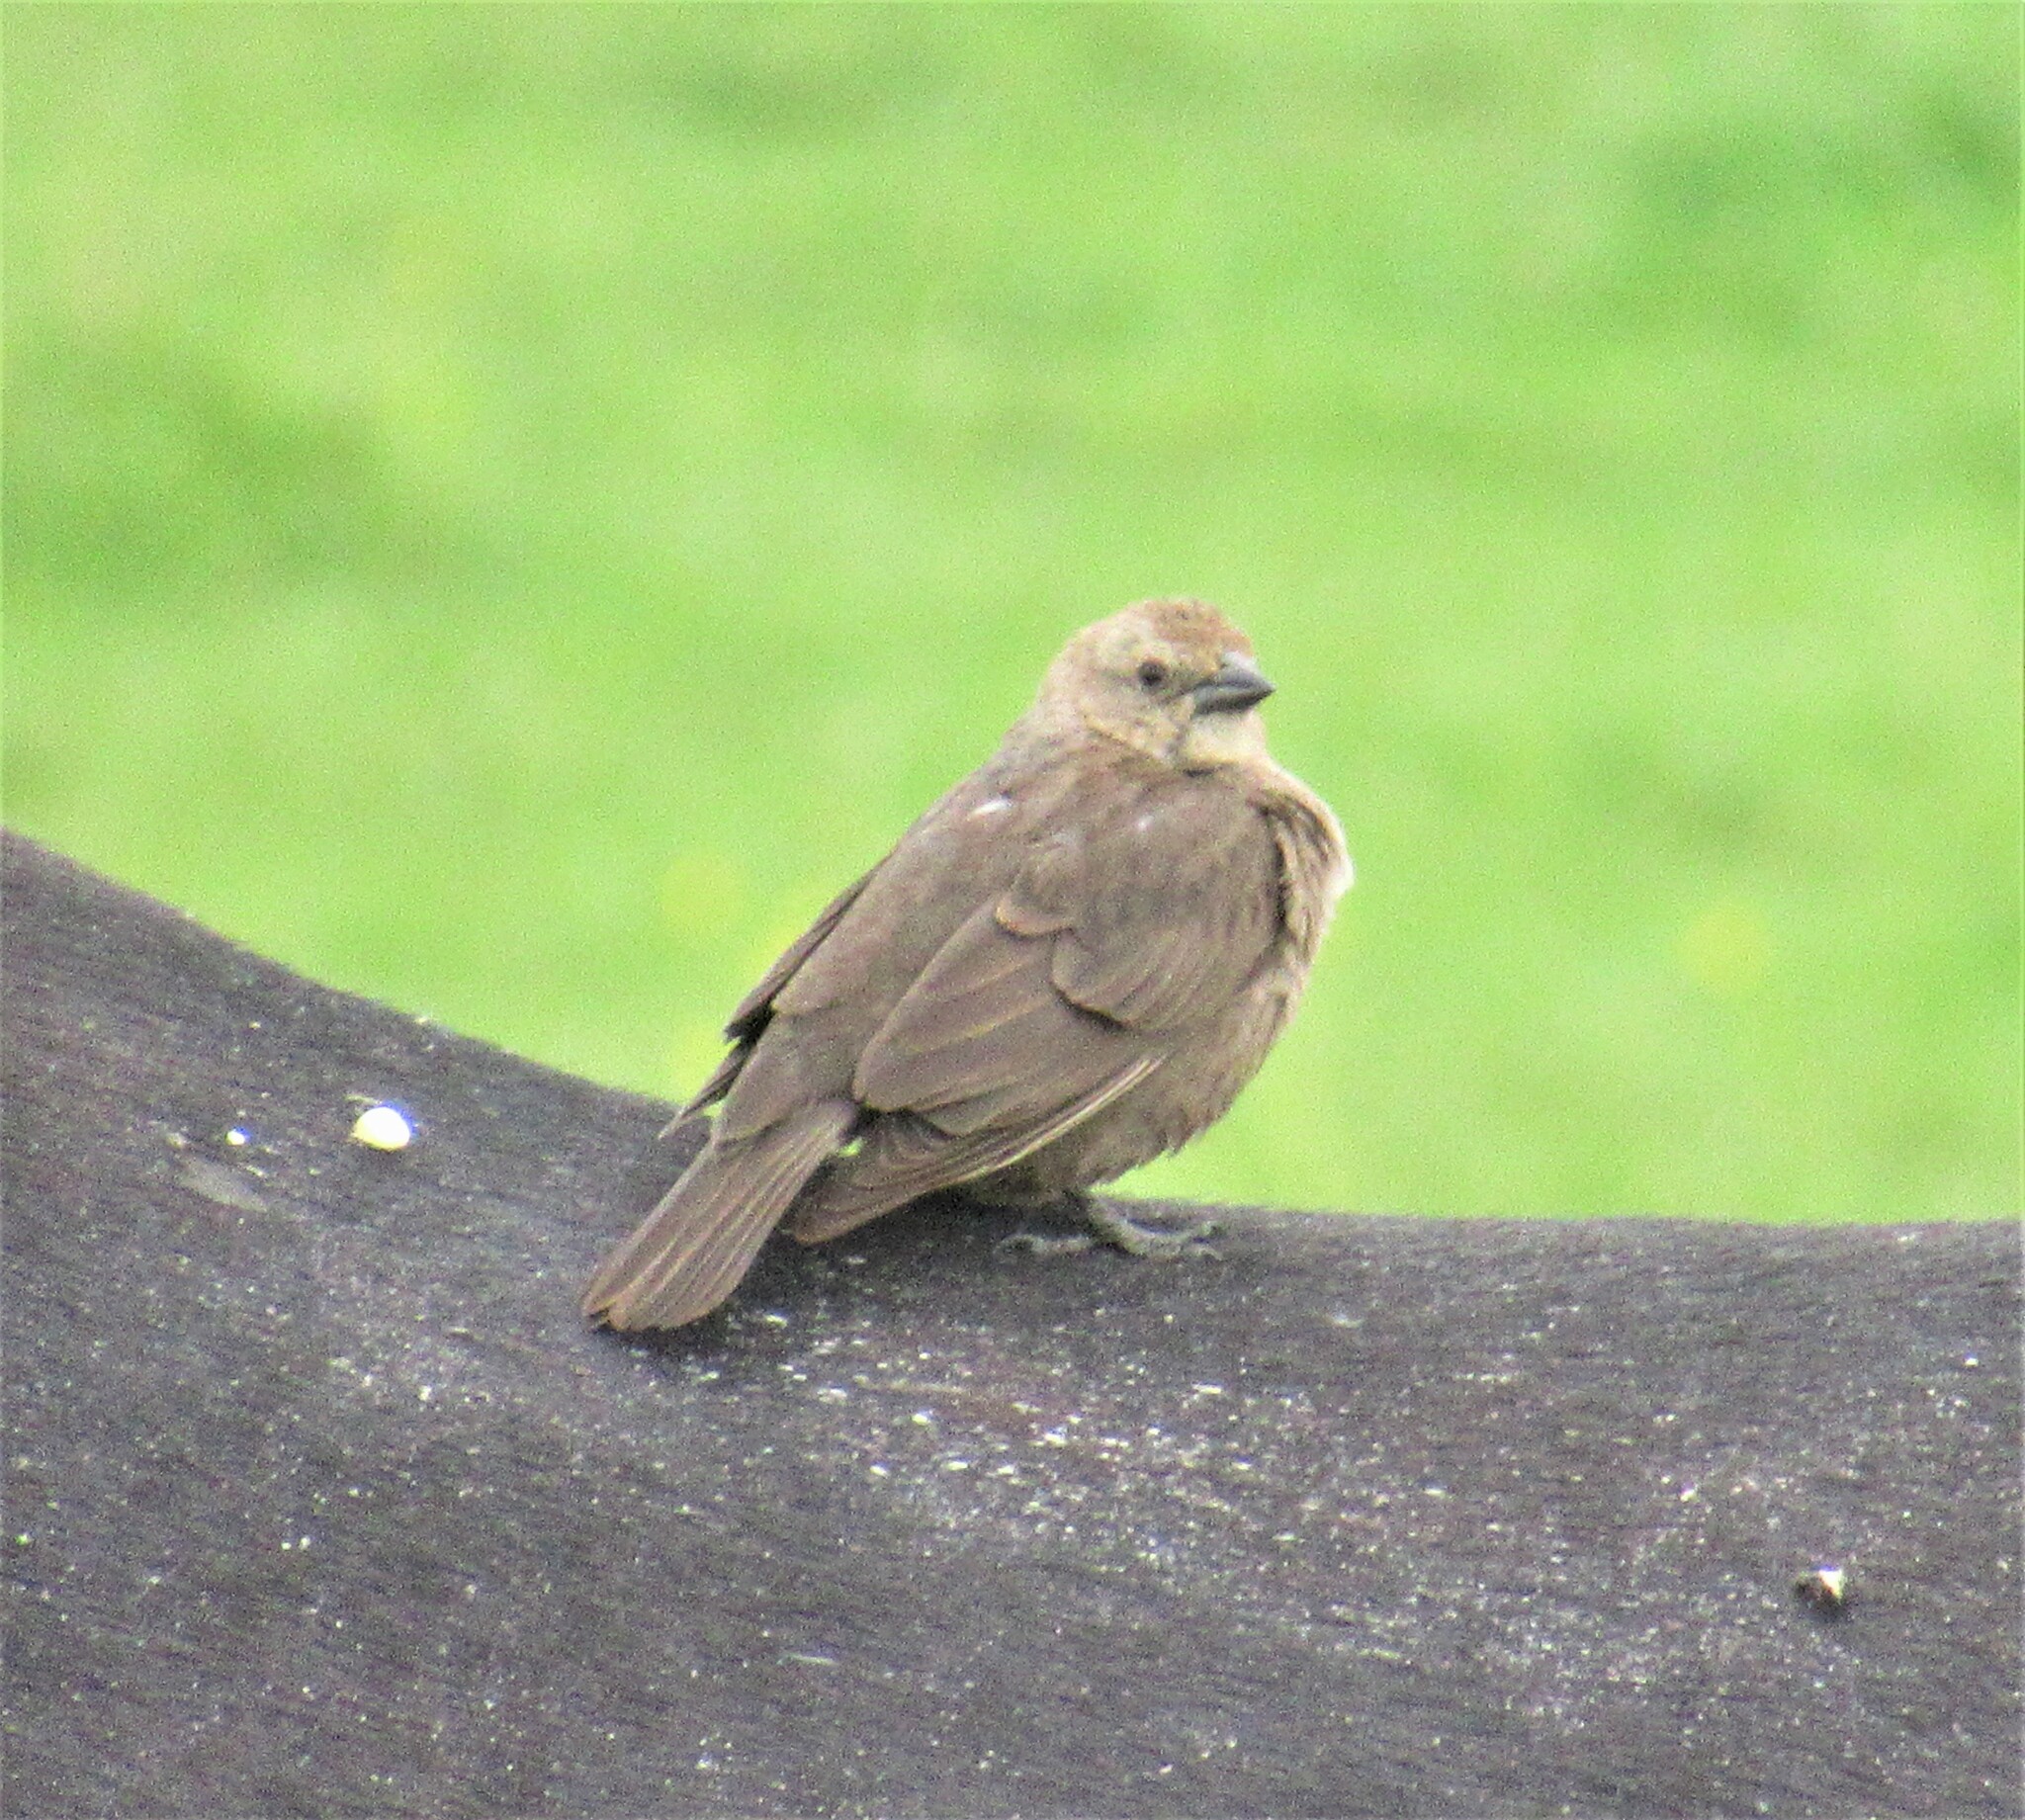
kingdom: Animalia
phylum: Chordata
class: Aves
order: Passeriformes
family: Icteridae
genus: Molothrus
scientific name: Molothrus ater
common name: Brown-headed cowbird
